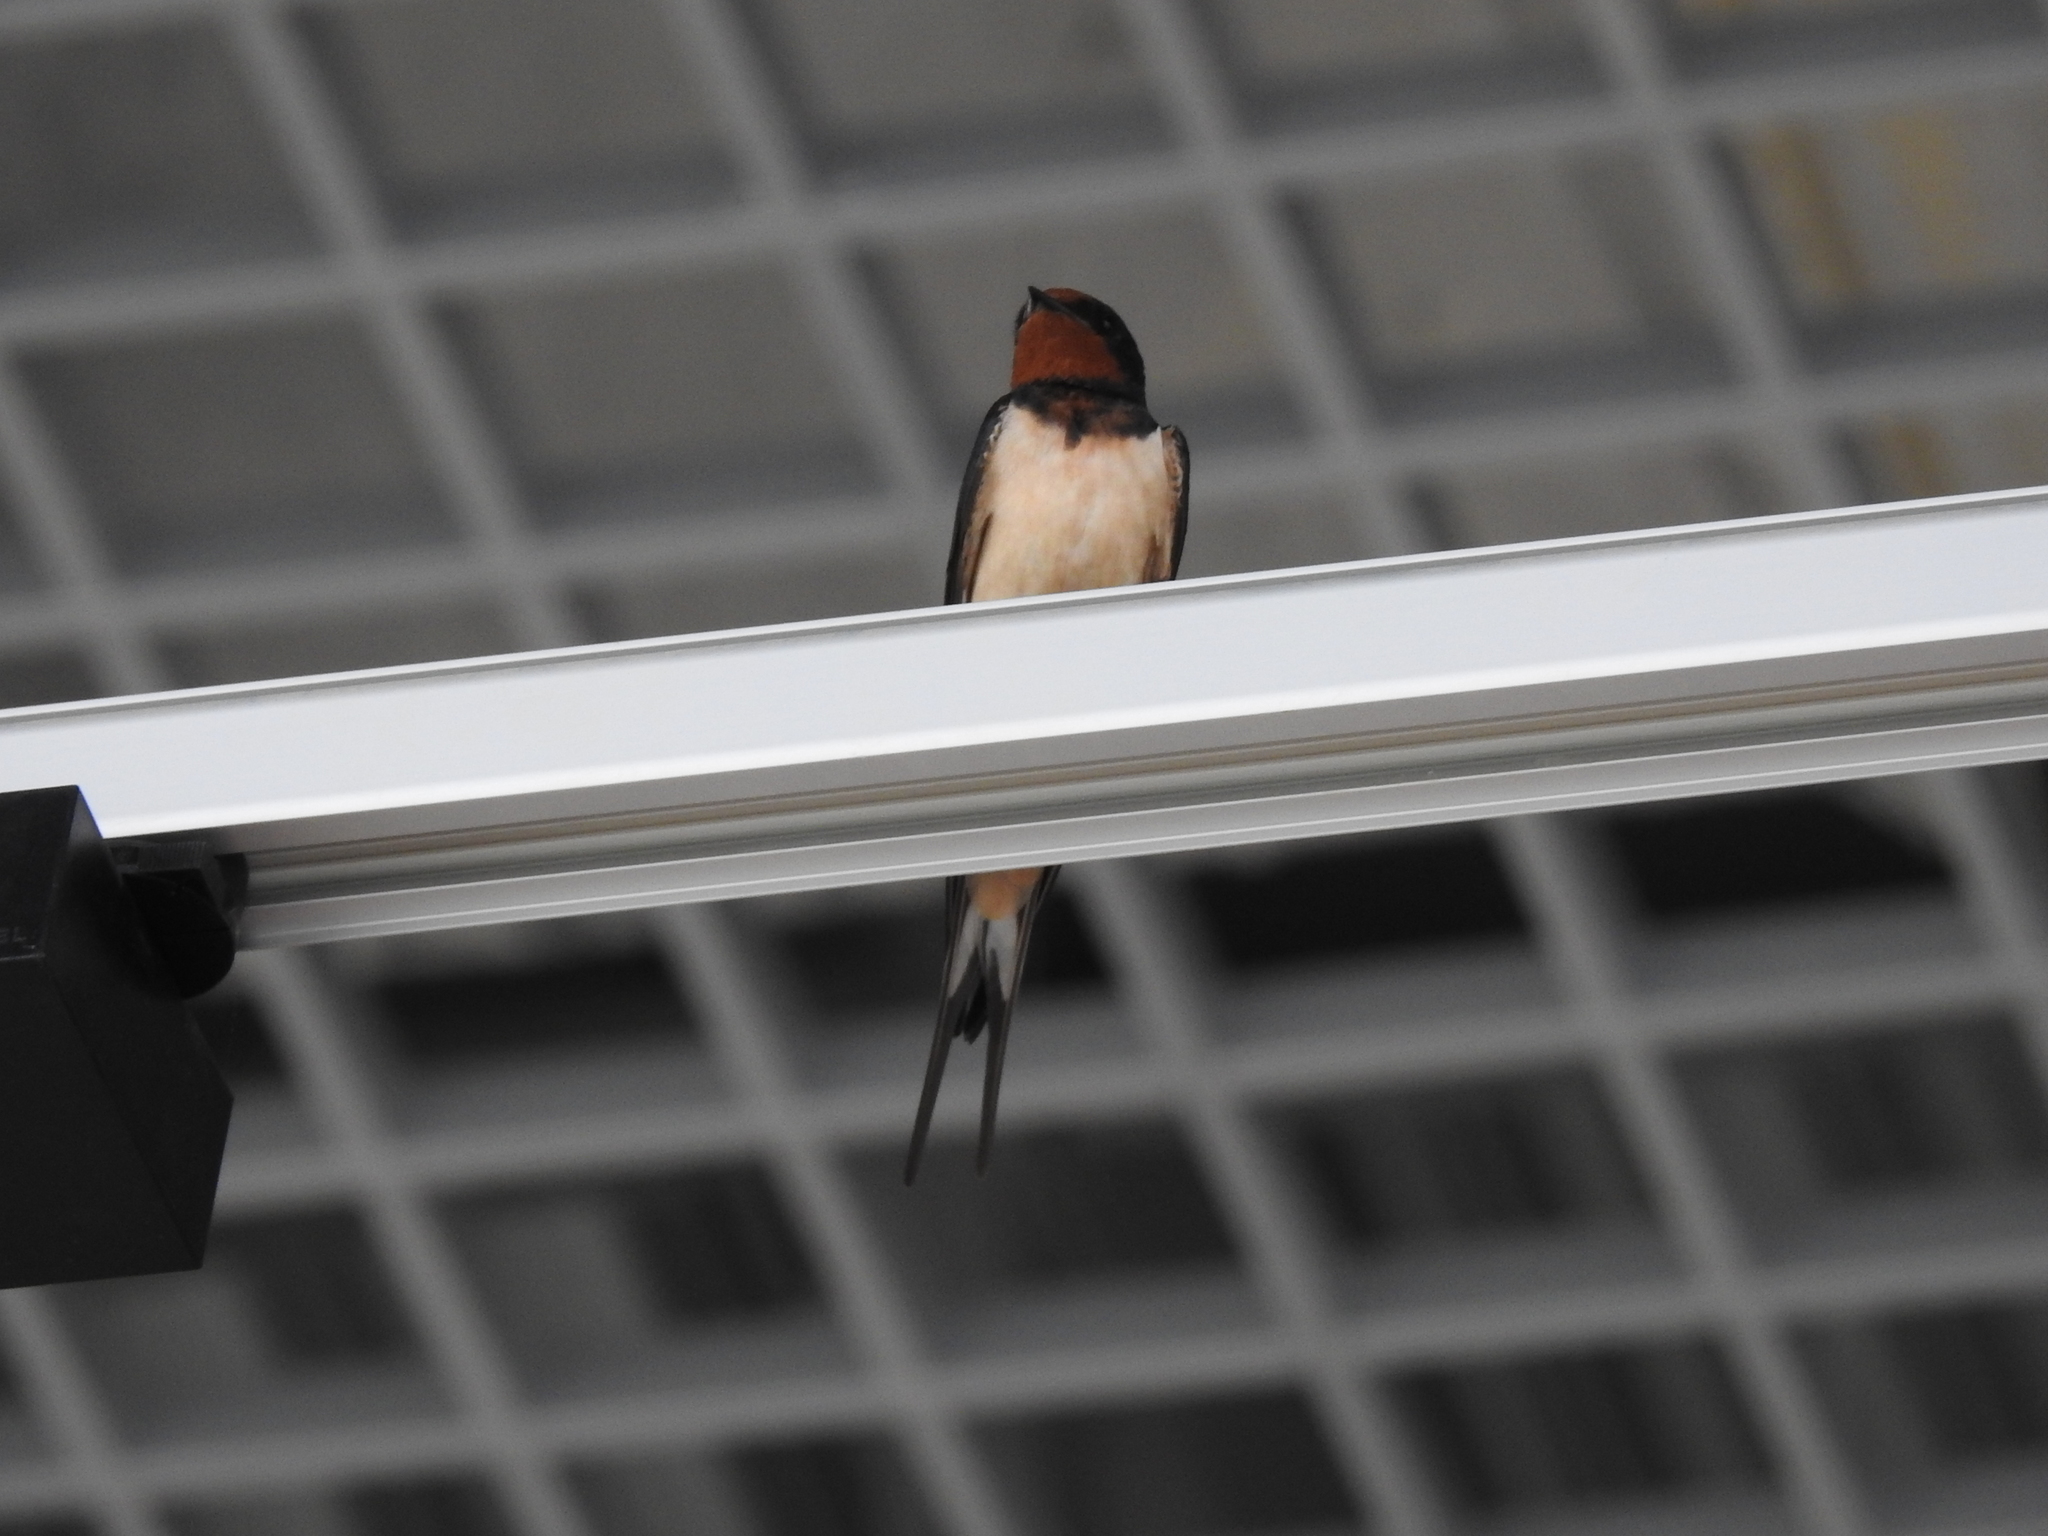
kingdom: Animalia
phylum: Chordata
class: Aves
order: Passeriformes
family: Hirundinidae
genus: Hirundo
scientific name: Hirundo rustica
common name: Barn swallow
